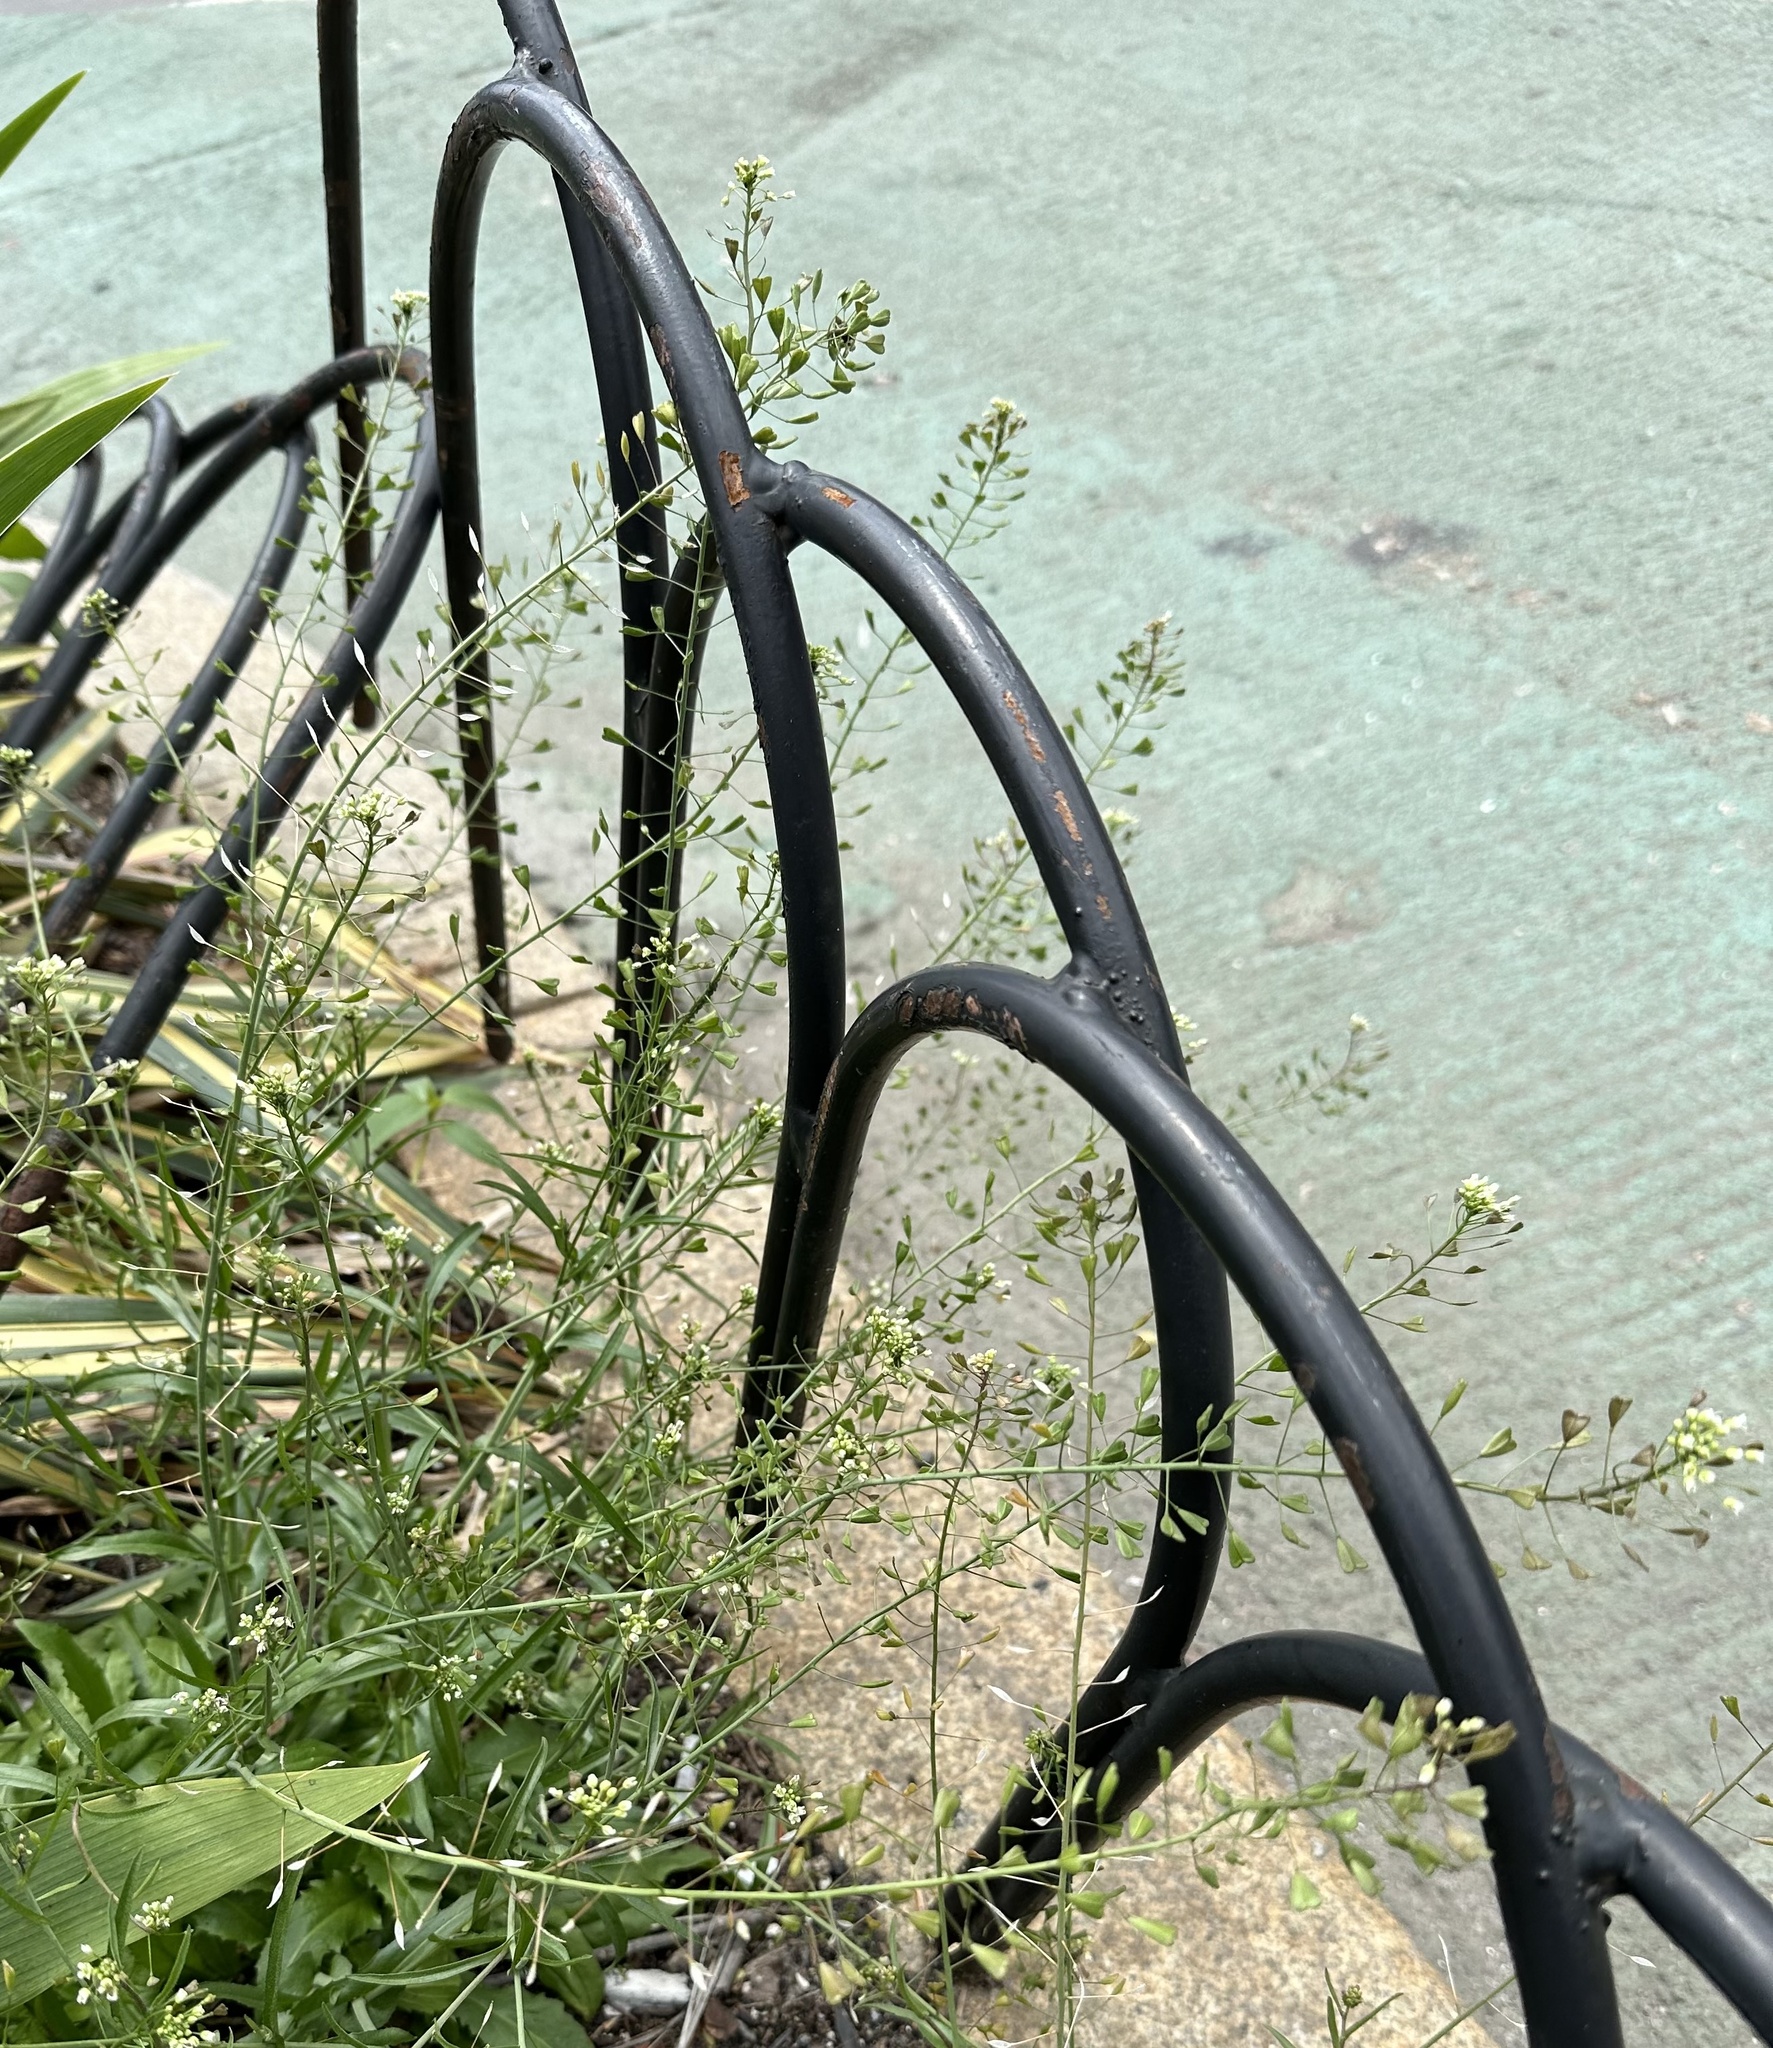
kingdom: Plantae
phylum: Tracheophyta
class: Magnoliopsida
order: Brassicales
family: Brassicaceae
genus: Capsella
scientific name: Capsella bursa-pastoris
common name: Shepherd's purse
